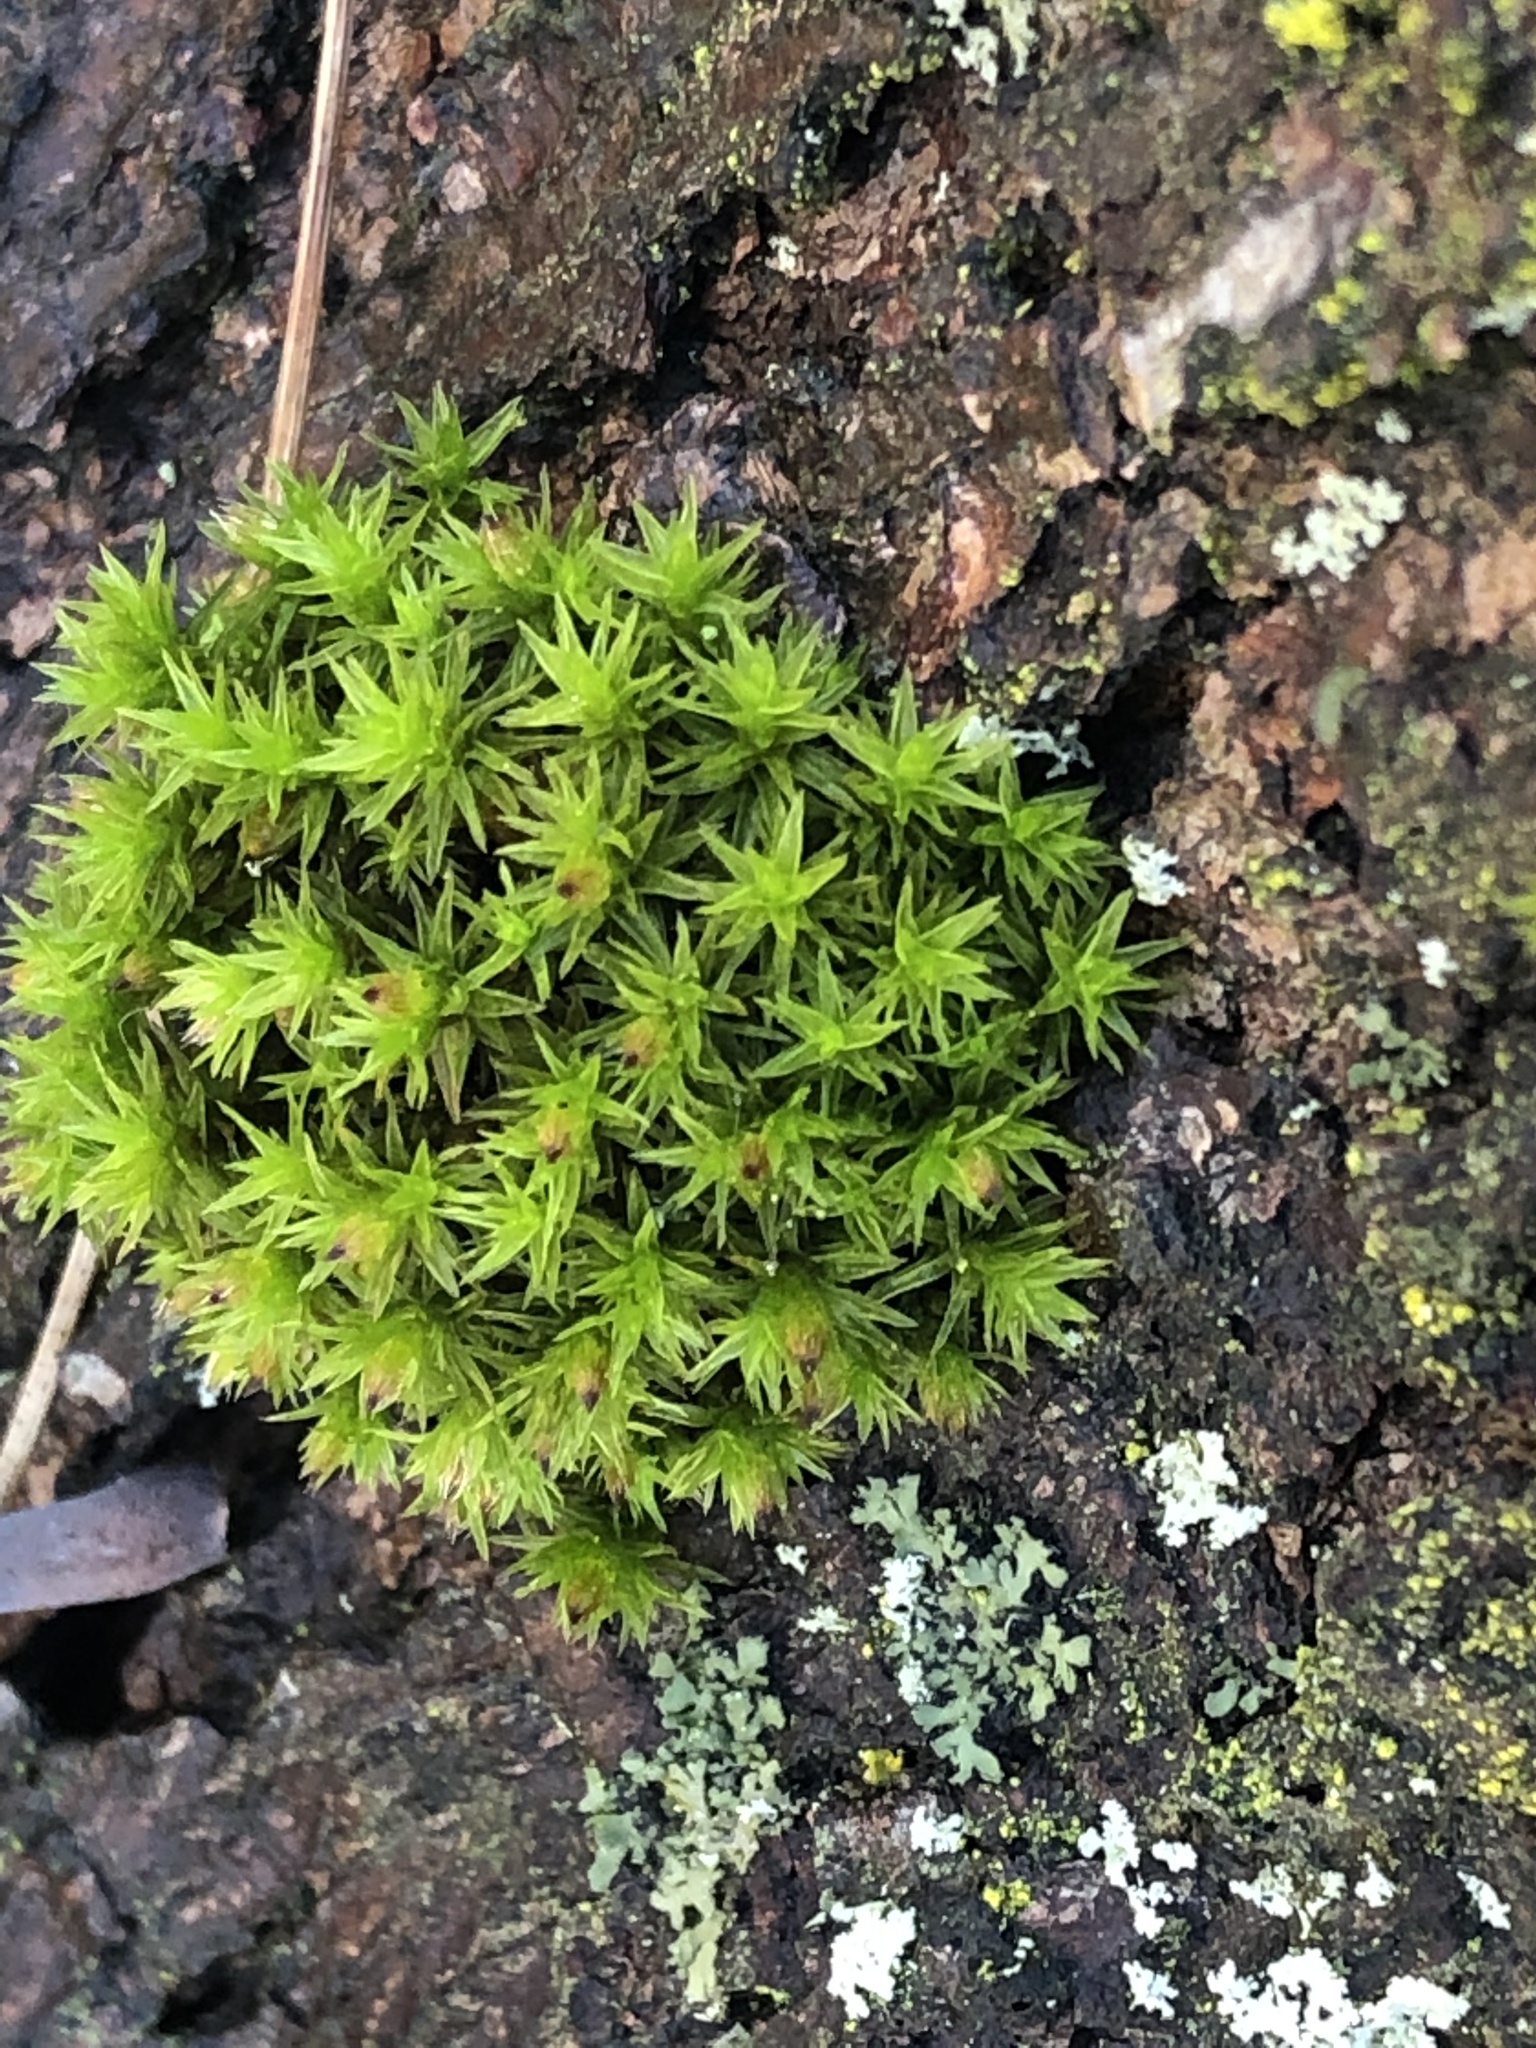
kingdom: Plantae
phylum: Bryophyta
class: Bryopsida
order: Orthotrichales
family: Orthotrichaceae
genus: Lewinskya
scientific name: Lewinskya affinis
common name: Wood bristle-moss
